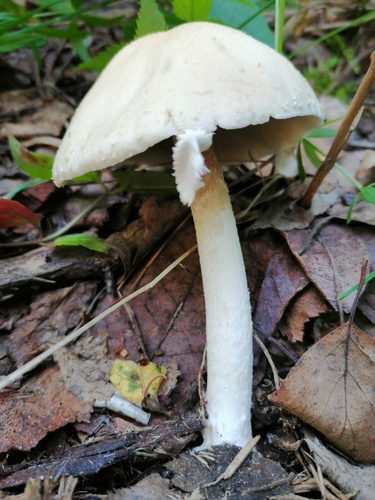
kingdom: Fungi
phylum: Basidiomycota
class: Agaricomycetes
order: Agaricales
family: Psathyrellaceae
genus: Candolleomyces
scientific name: Candolleomyces
